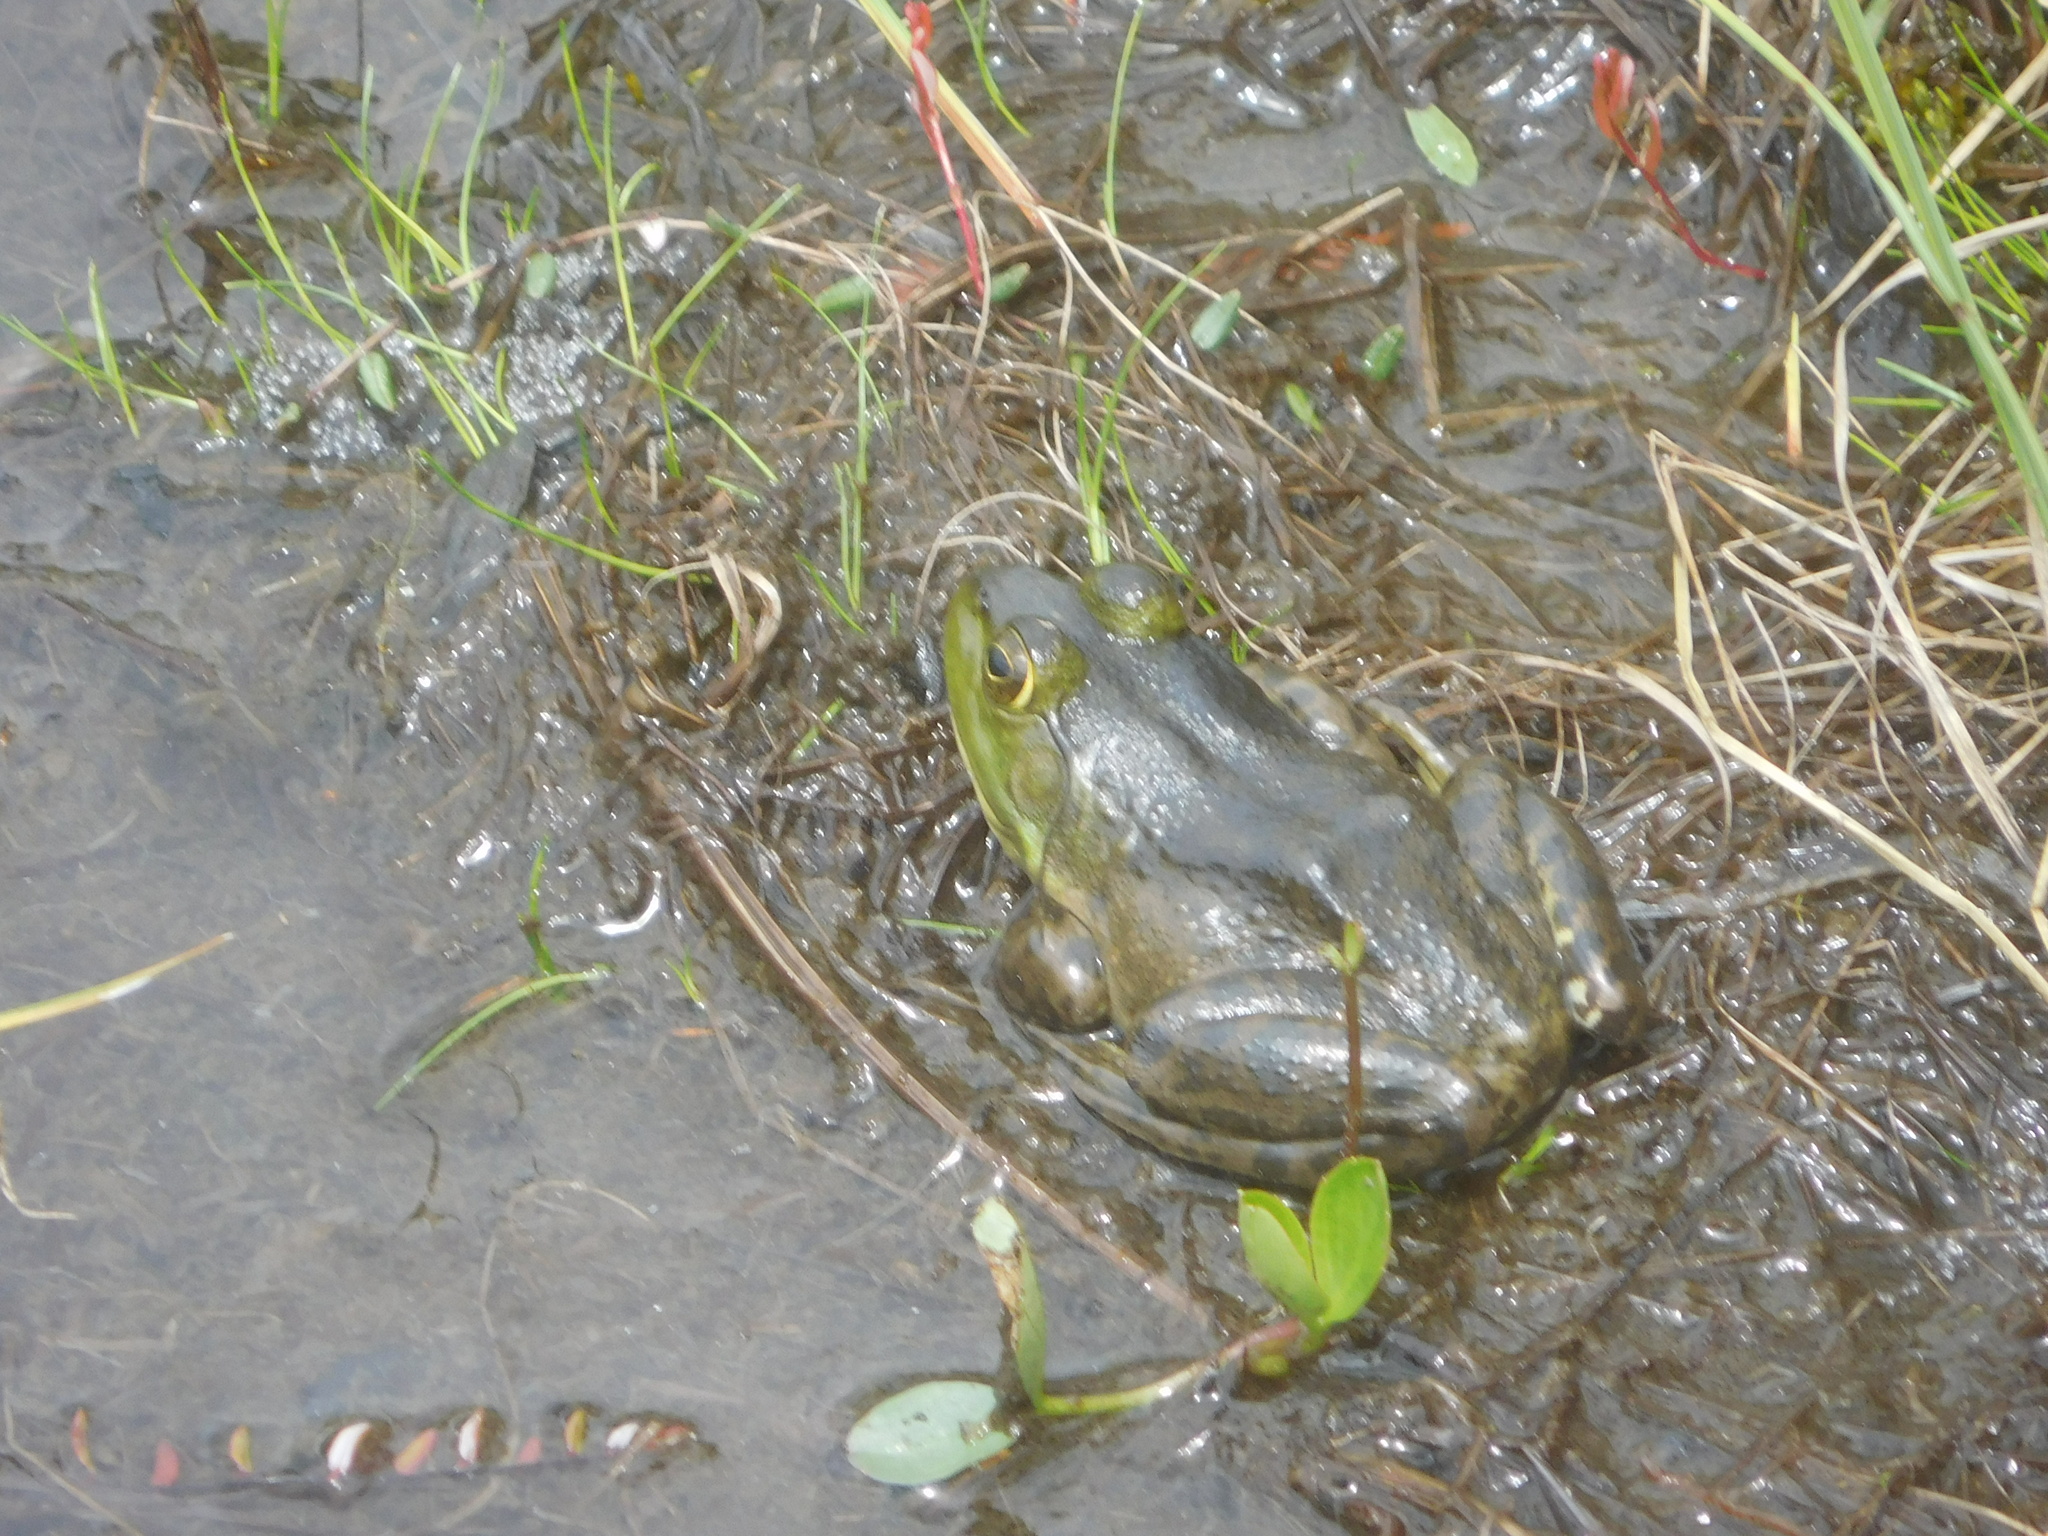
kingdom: Animalia
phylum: Chordata
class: Amphibia
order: Anura
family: Ranidae
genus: Lithobates
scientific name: Lithobates catesbeianus
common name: American bullfrog
